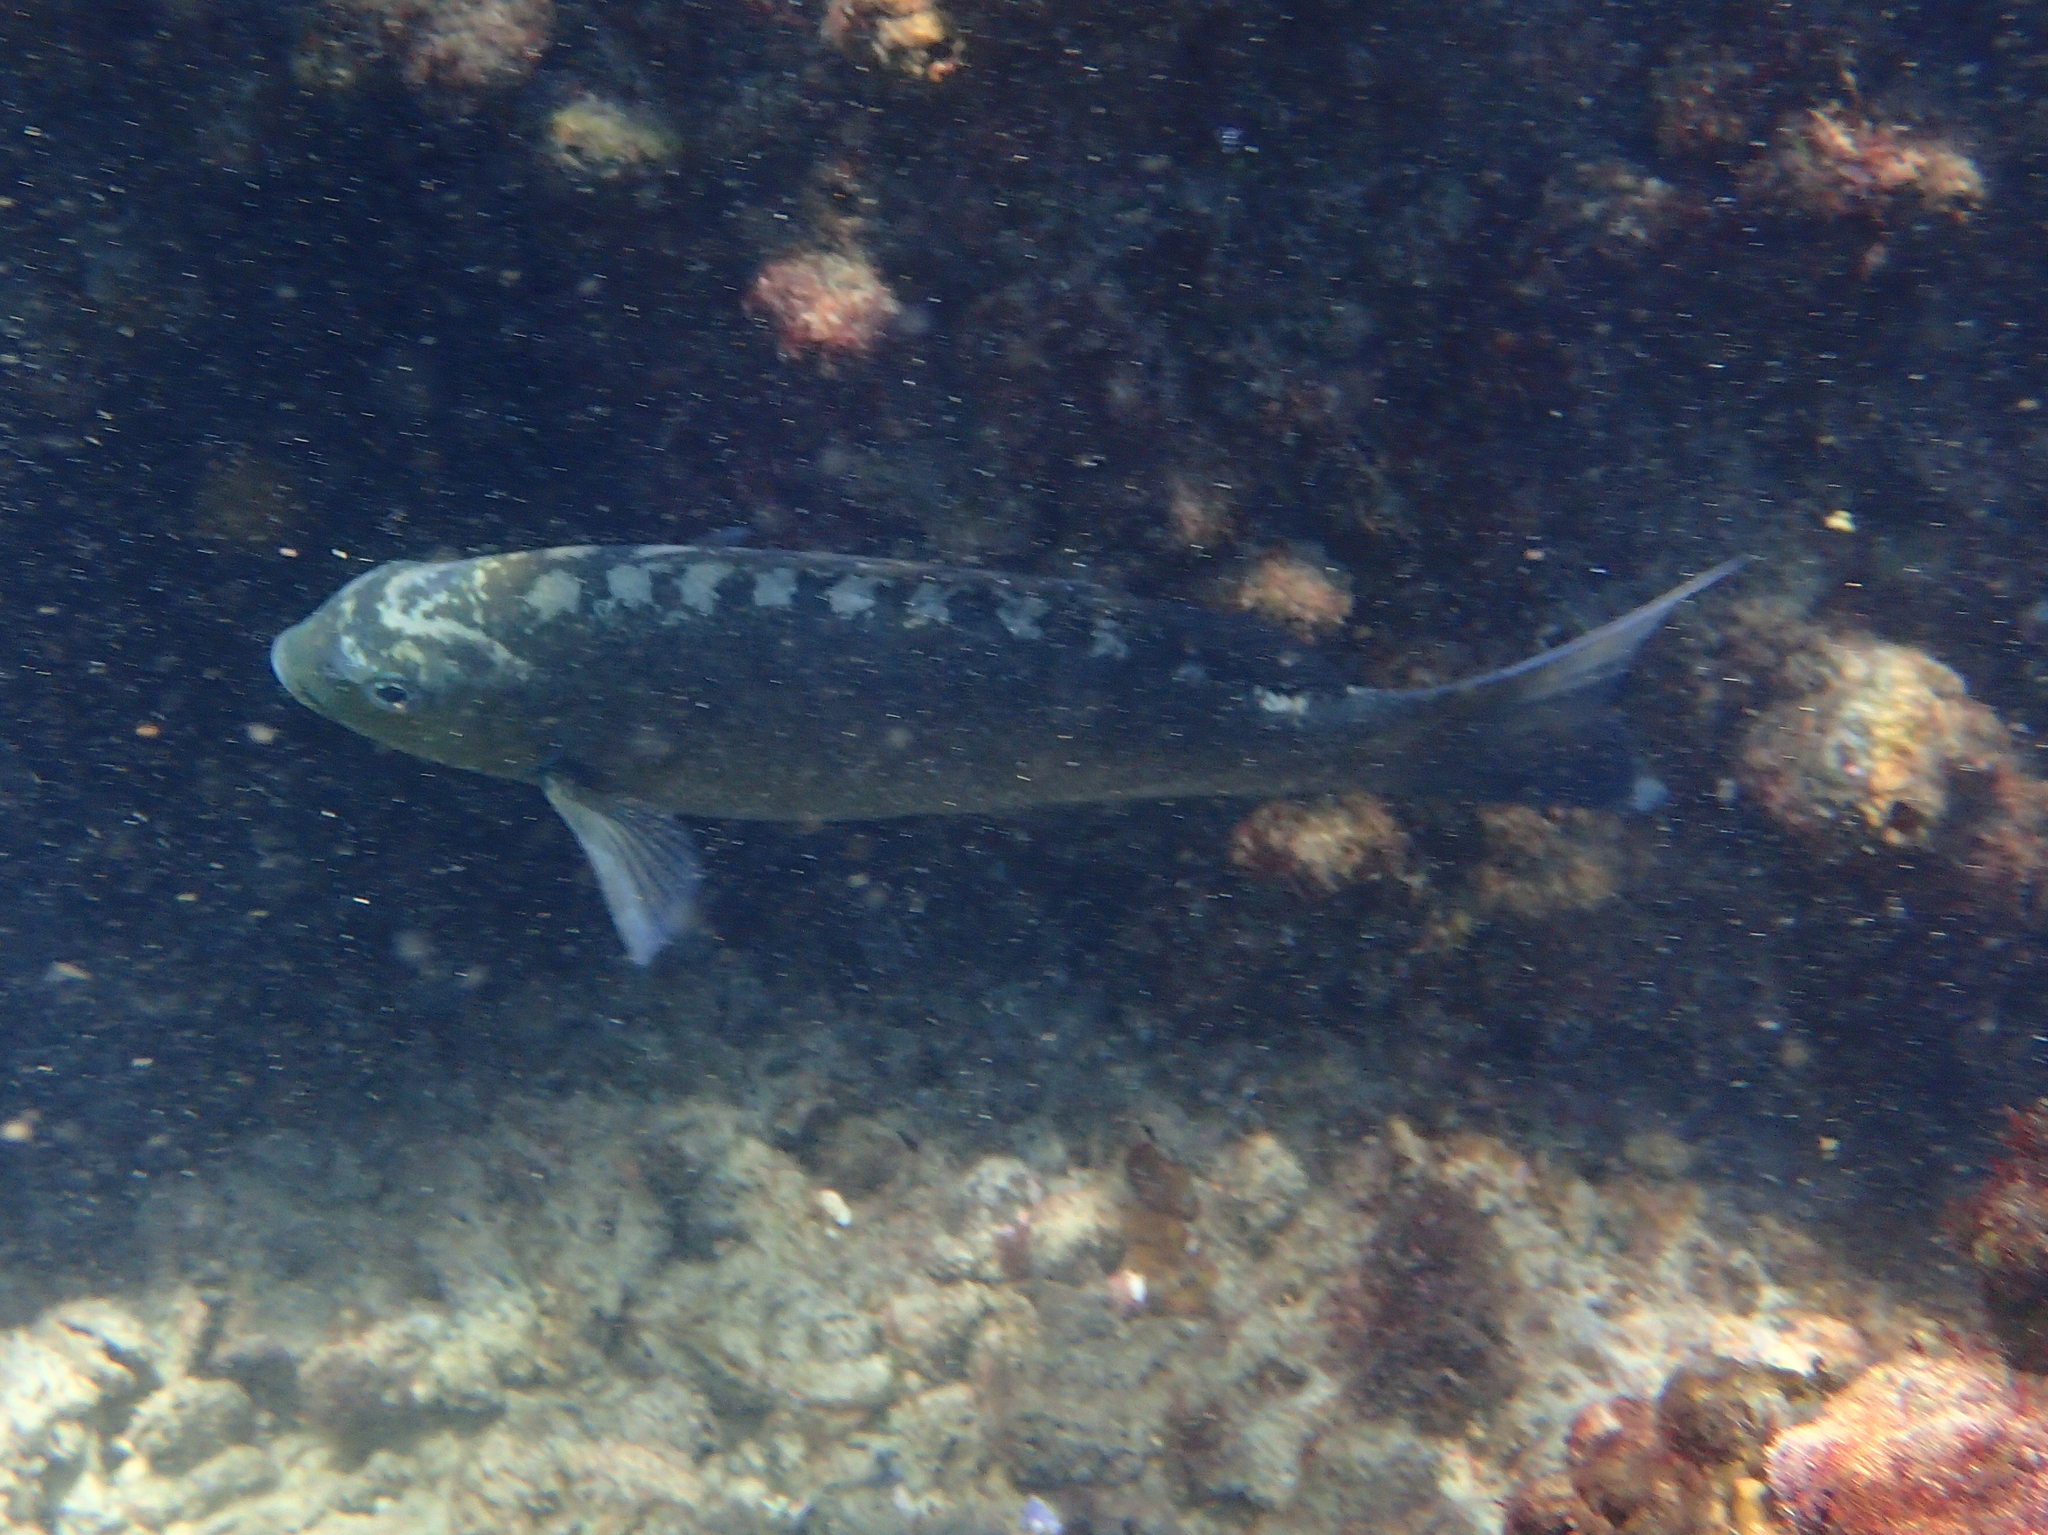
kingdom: Animalia
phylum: Chordata
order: Perciformes
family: Kyphosidae
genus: Girella
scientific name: Girella tricuspidata
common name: Parore
